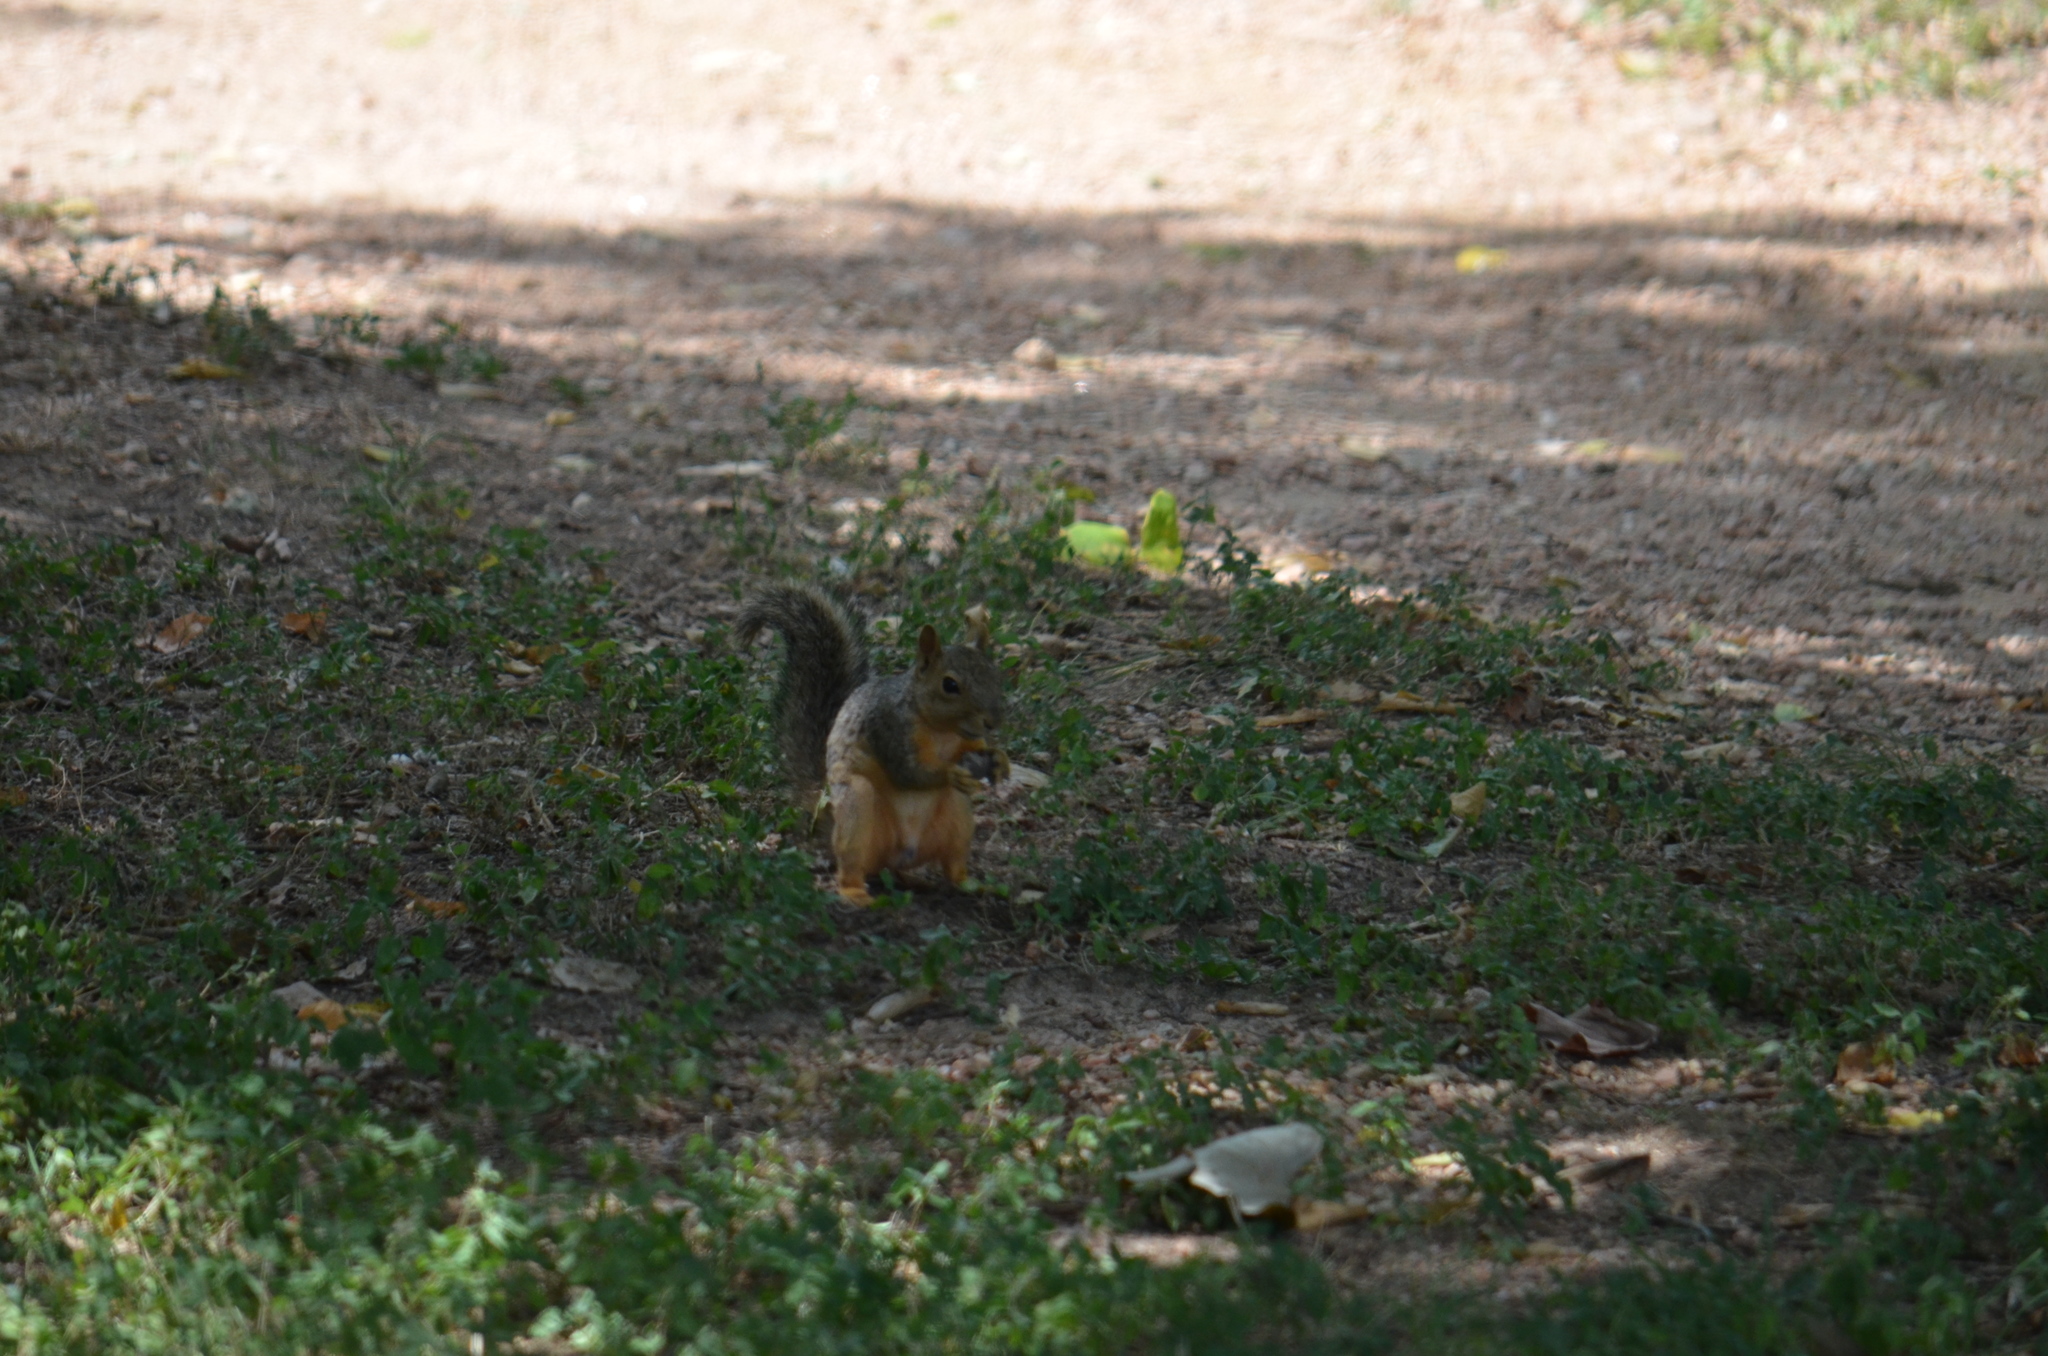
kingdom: Animalia
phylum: Chordata
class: Mammalia
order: Rodentia
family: Sciuridae
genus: Sciurus
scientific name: Sciurus niger
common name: Fox squirrel
